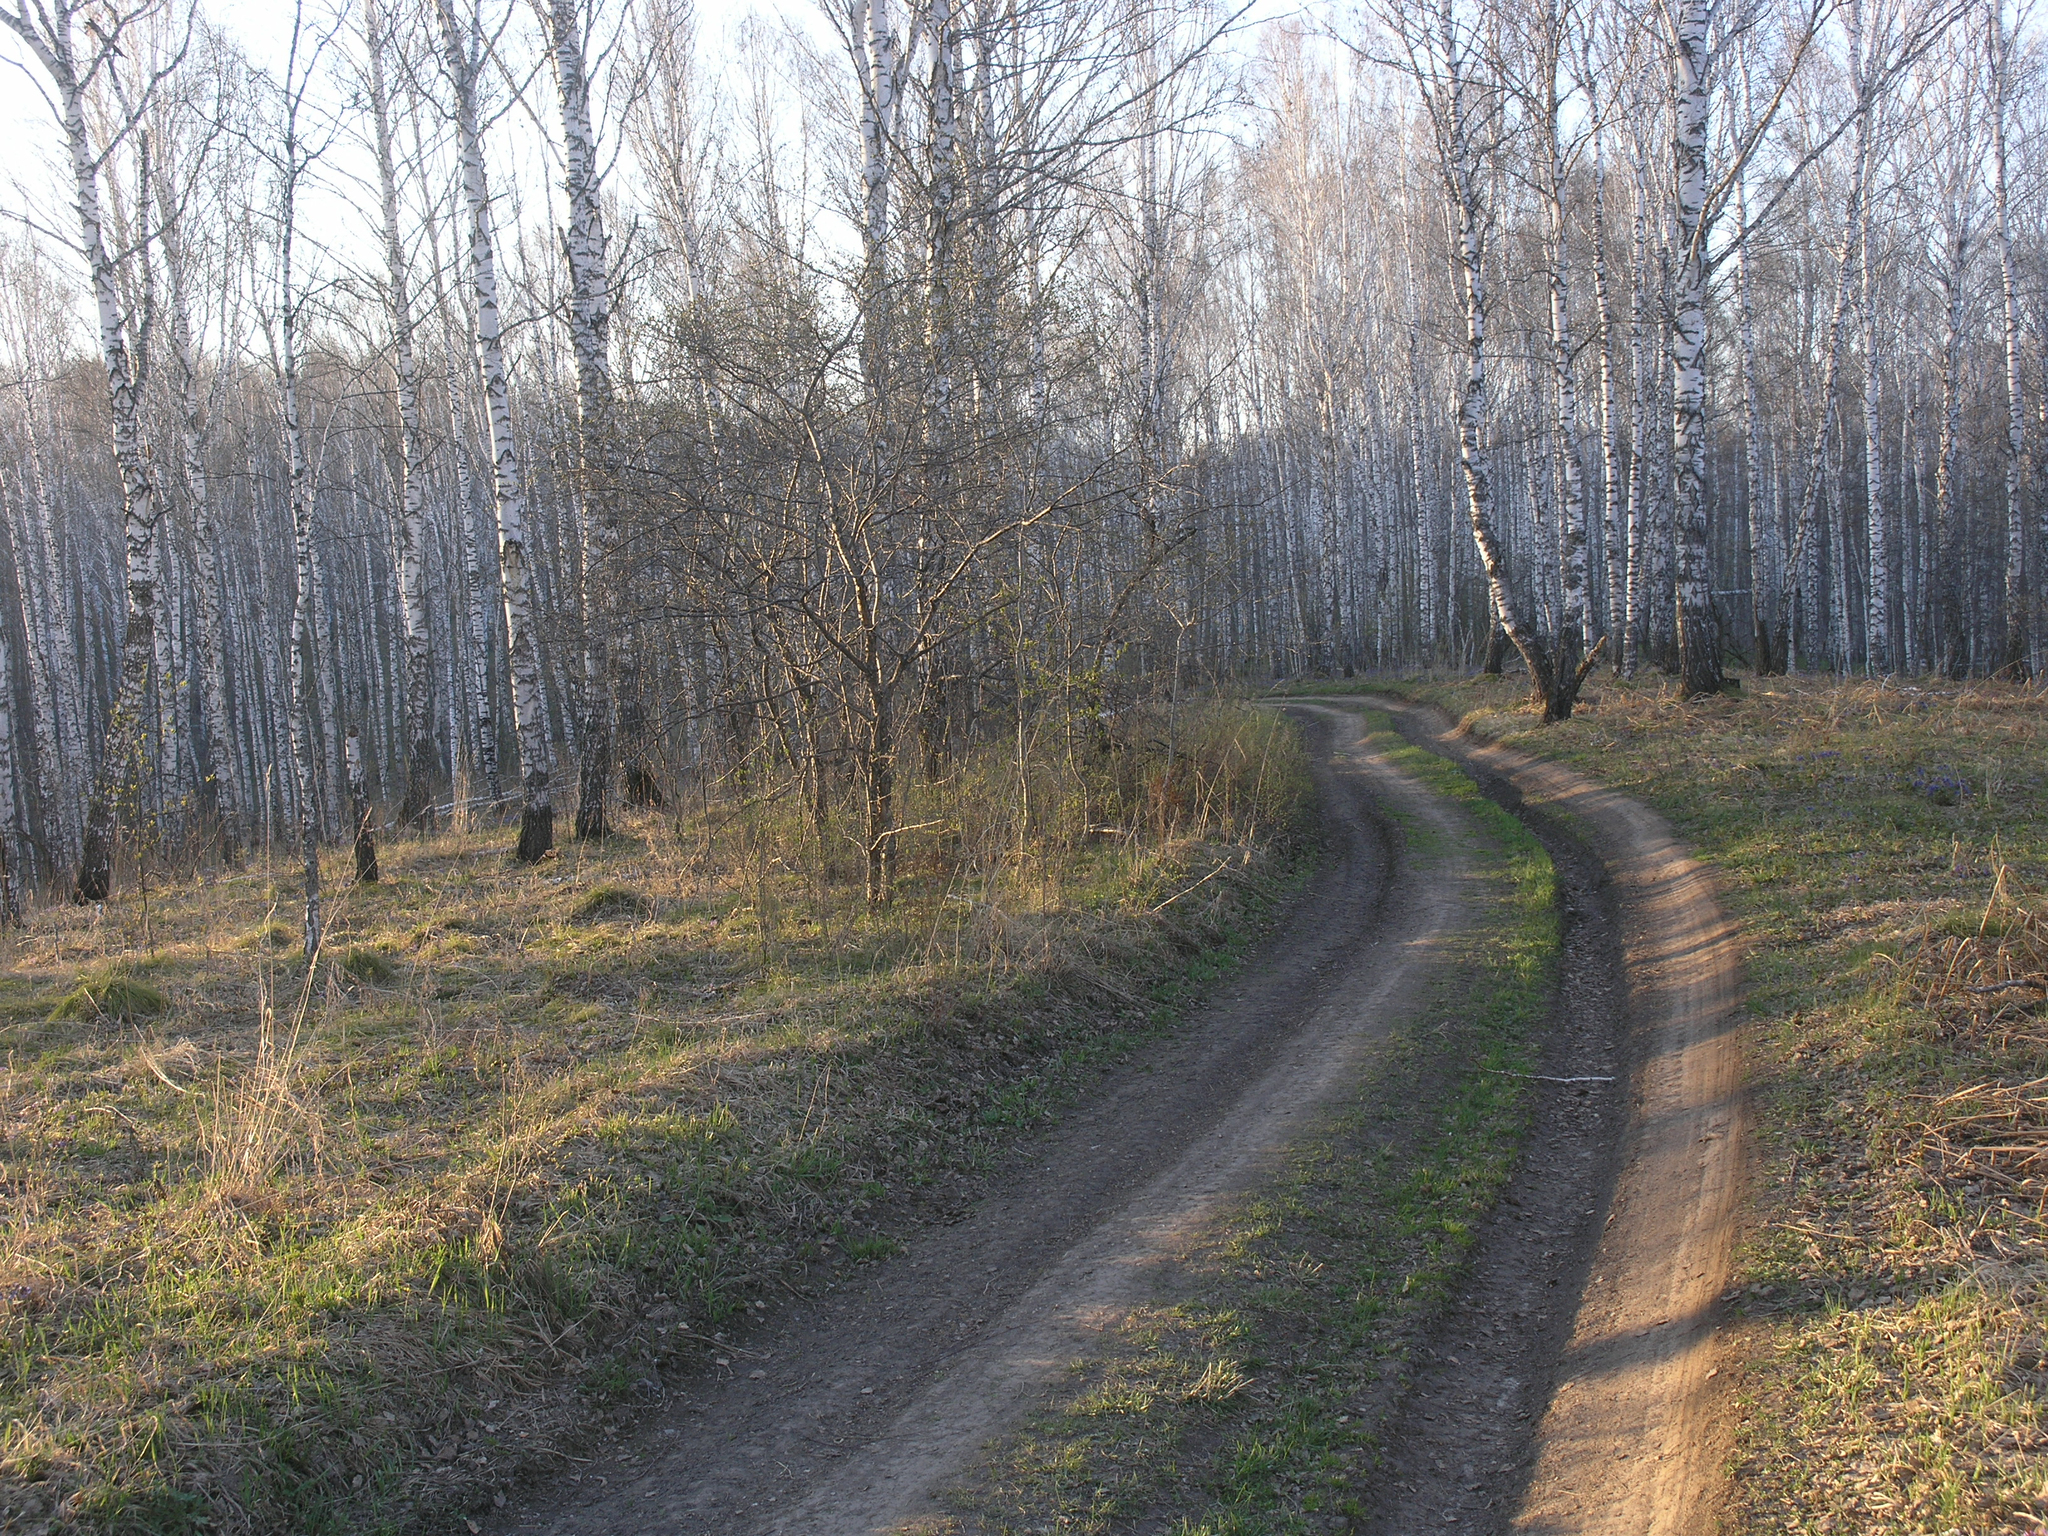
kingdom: Plantae
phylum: Tracheophyta
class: Magnoliopsida
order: Fagales
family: Betulaceae
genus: Betula
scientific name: Betula pendula
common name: Silver birch
